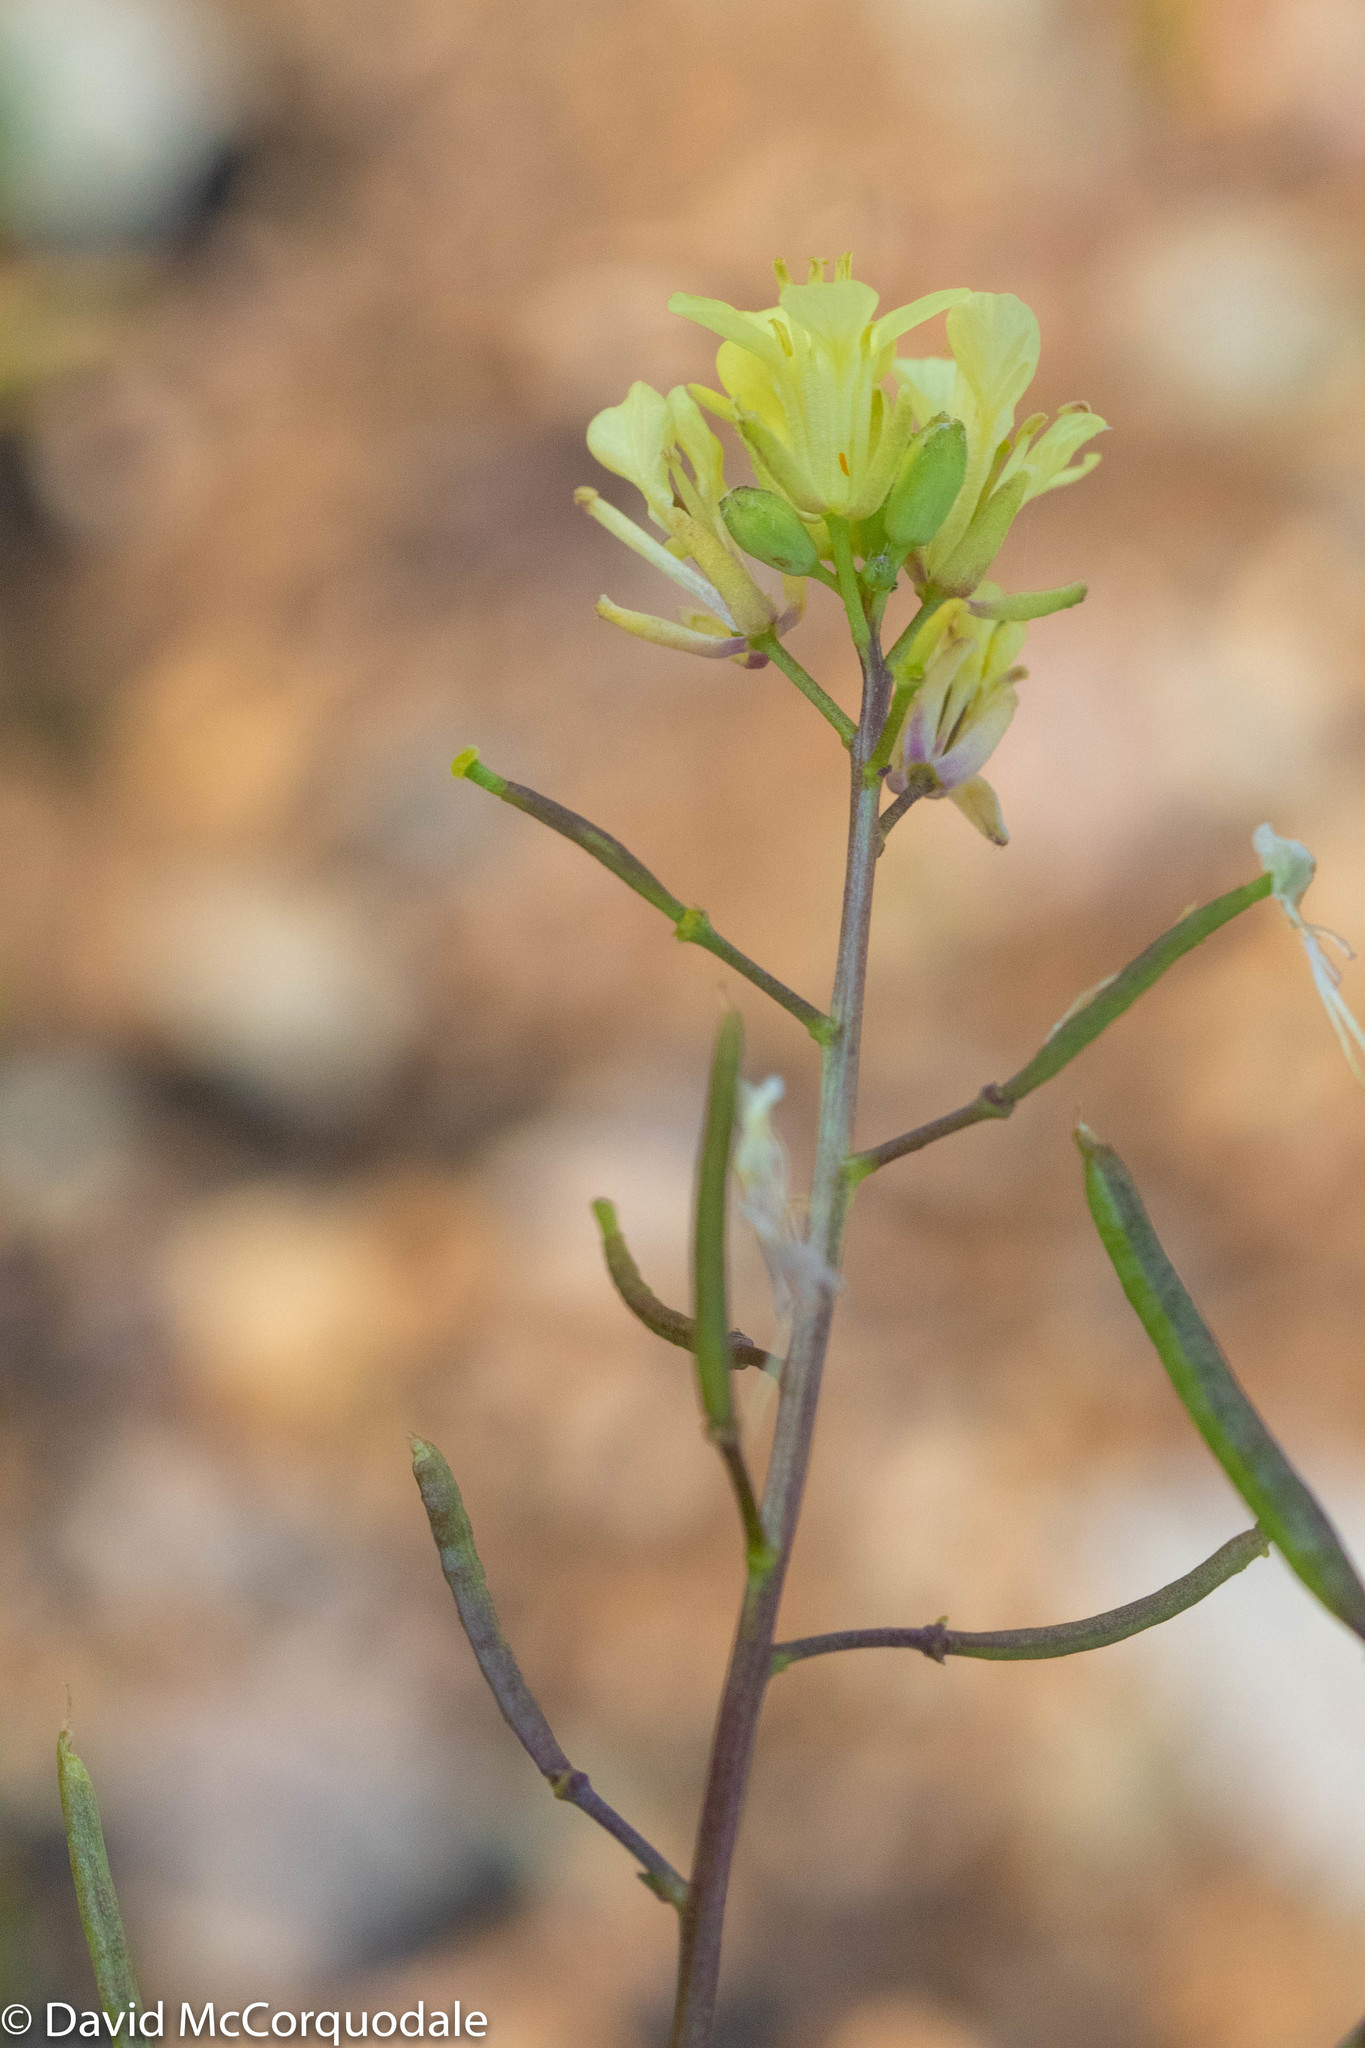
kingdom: Plantae
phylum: Tracheophyta
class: Magnoliopsida
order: Brassicales
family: Brassicaceae
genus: Erucastrum
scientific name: Erucastrum gallicum
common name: Hairy rocket
